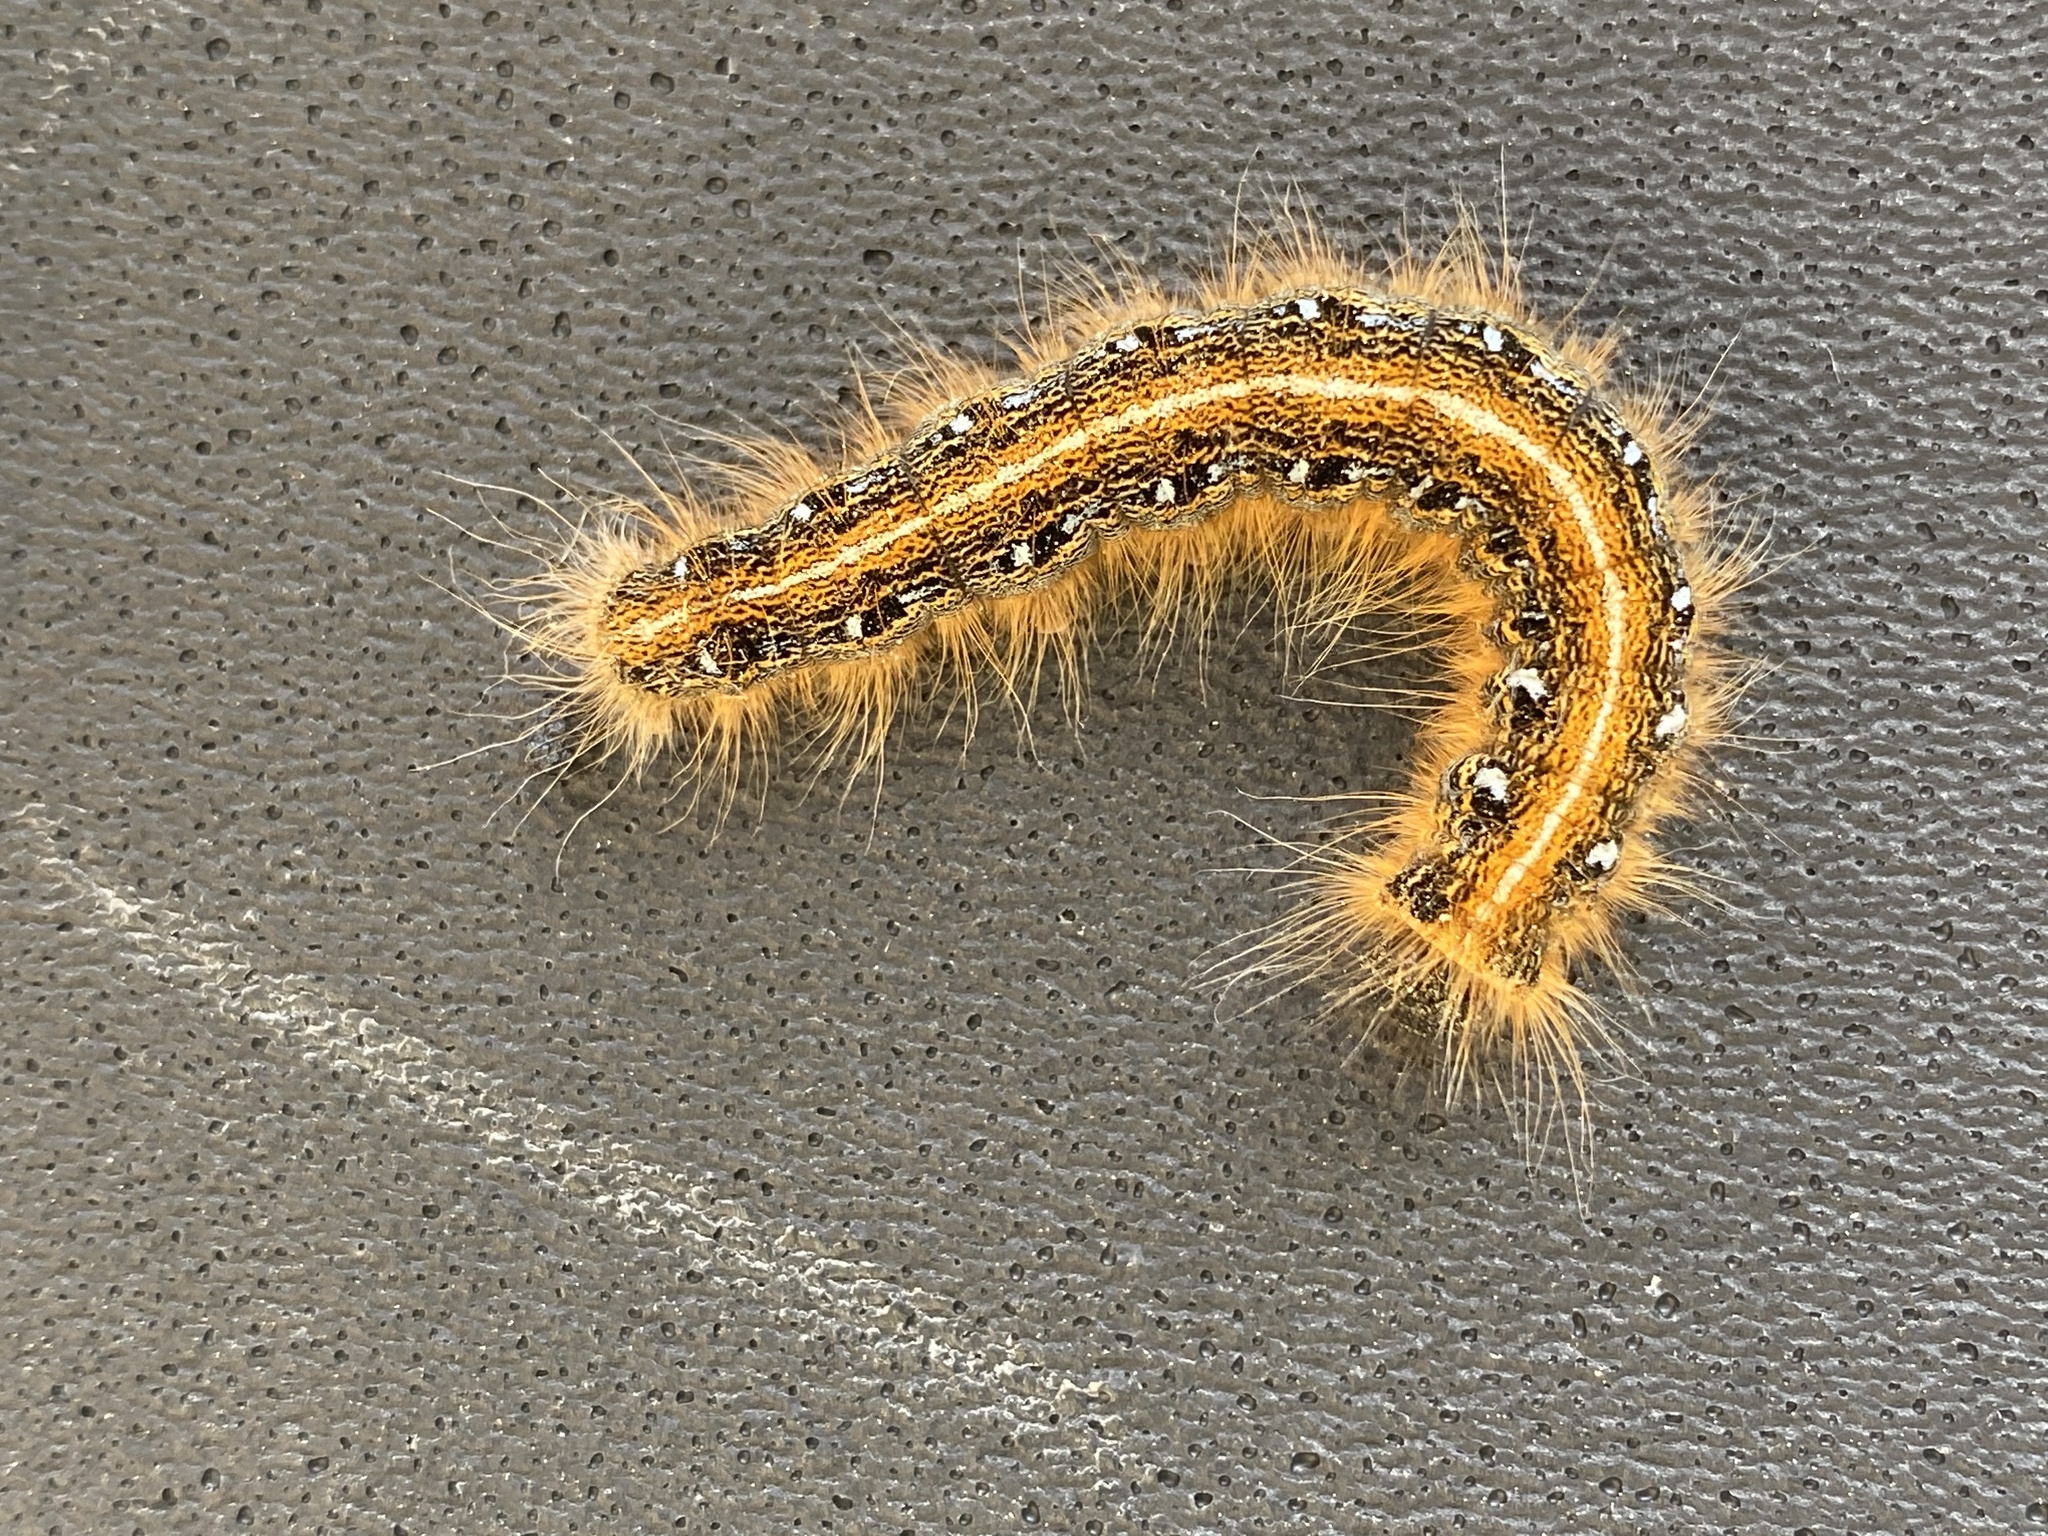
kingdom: Animalia
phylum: Arthropoda
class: Insecta
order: Lepidoptera
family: Lasiocampidae
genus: Malacosoma
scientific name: Malacosoma americana
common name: Eastern tent caterpillar moth
